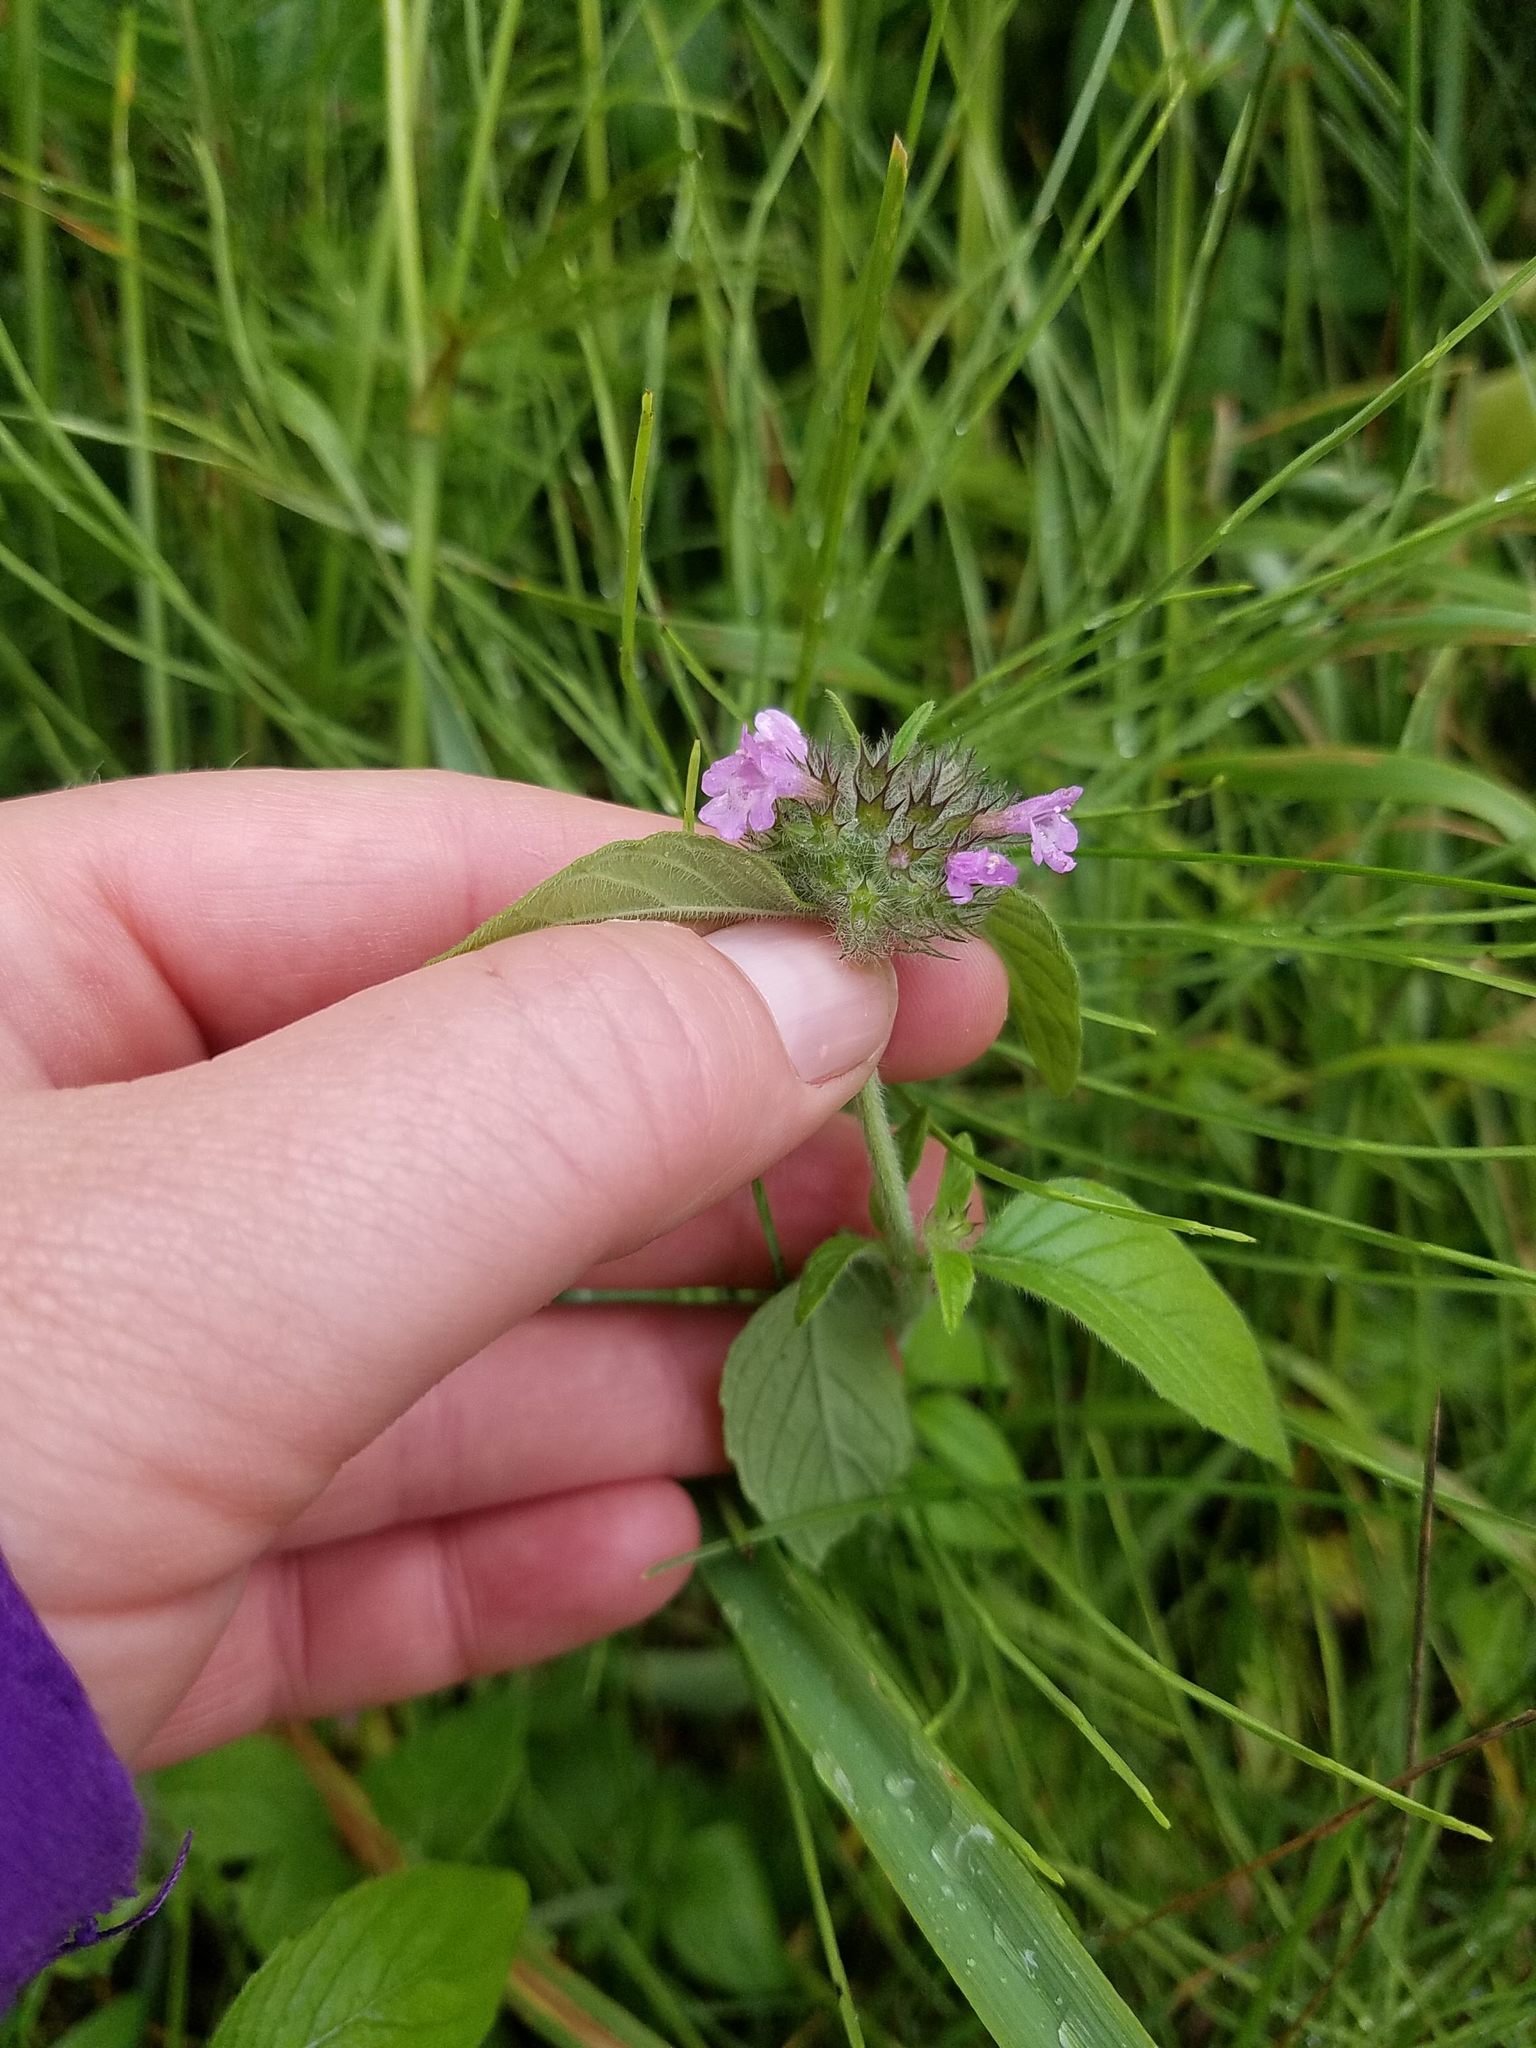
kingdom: Plantae
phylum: Tracheophyta
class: Magnoliopsida
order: Lamiales
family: Lamiaceae
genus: Clinopodium
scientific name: Clinopodium vulgare
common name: Wild basil
